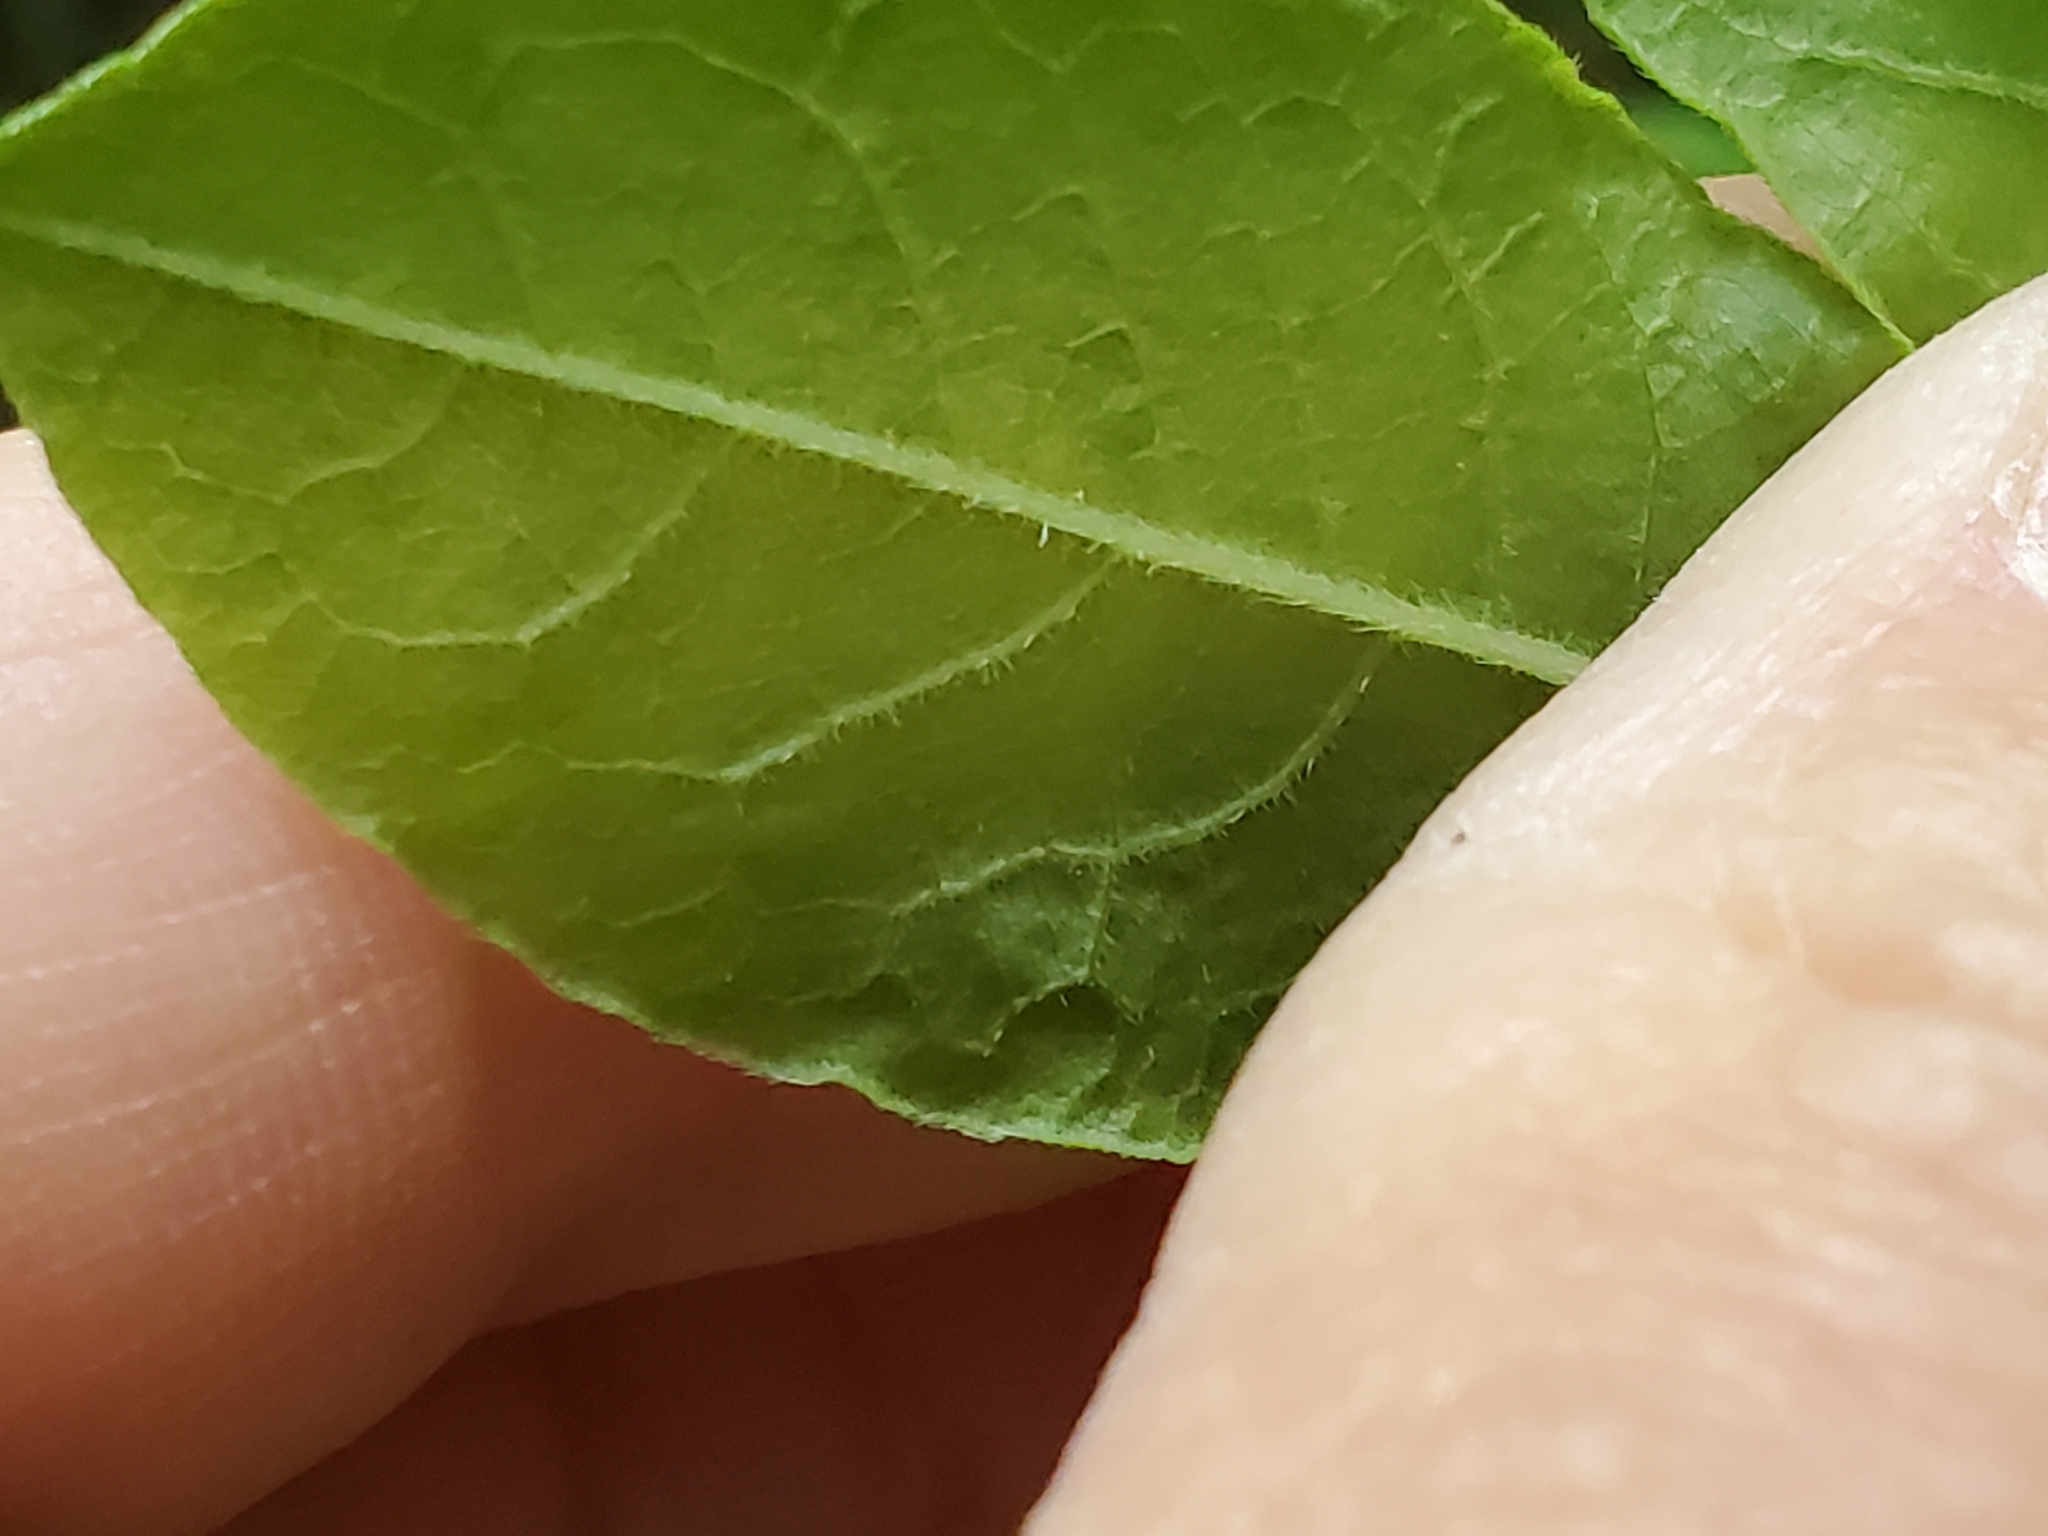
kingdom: Plantae
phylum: Tracheophyta
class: Magnoliopsida
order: Ericales
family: Ericaceae
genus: Rhododendron
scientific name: Rhododendron periclymenoides
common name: Election-pink
